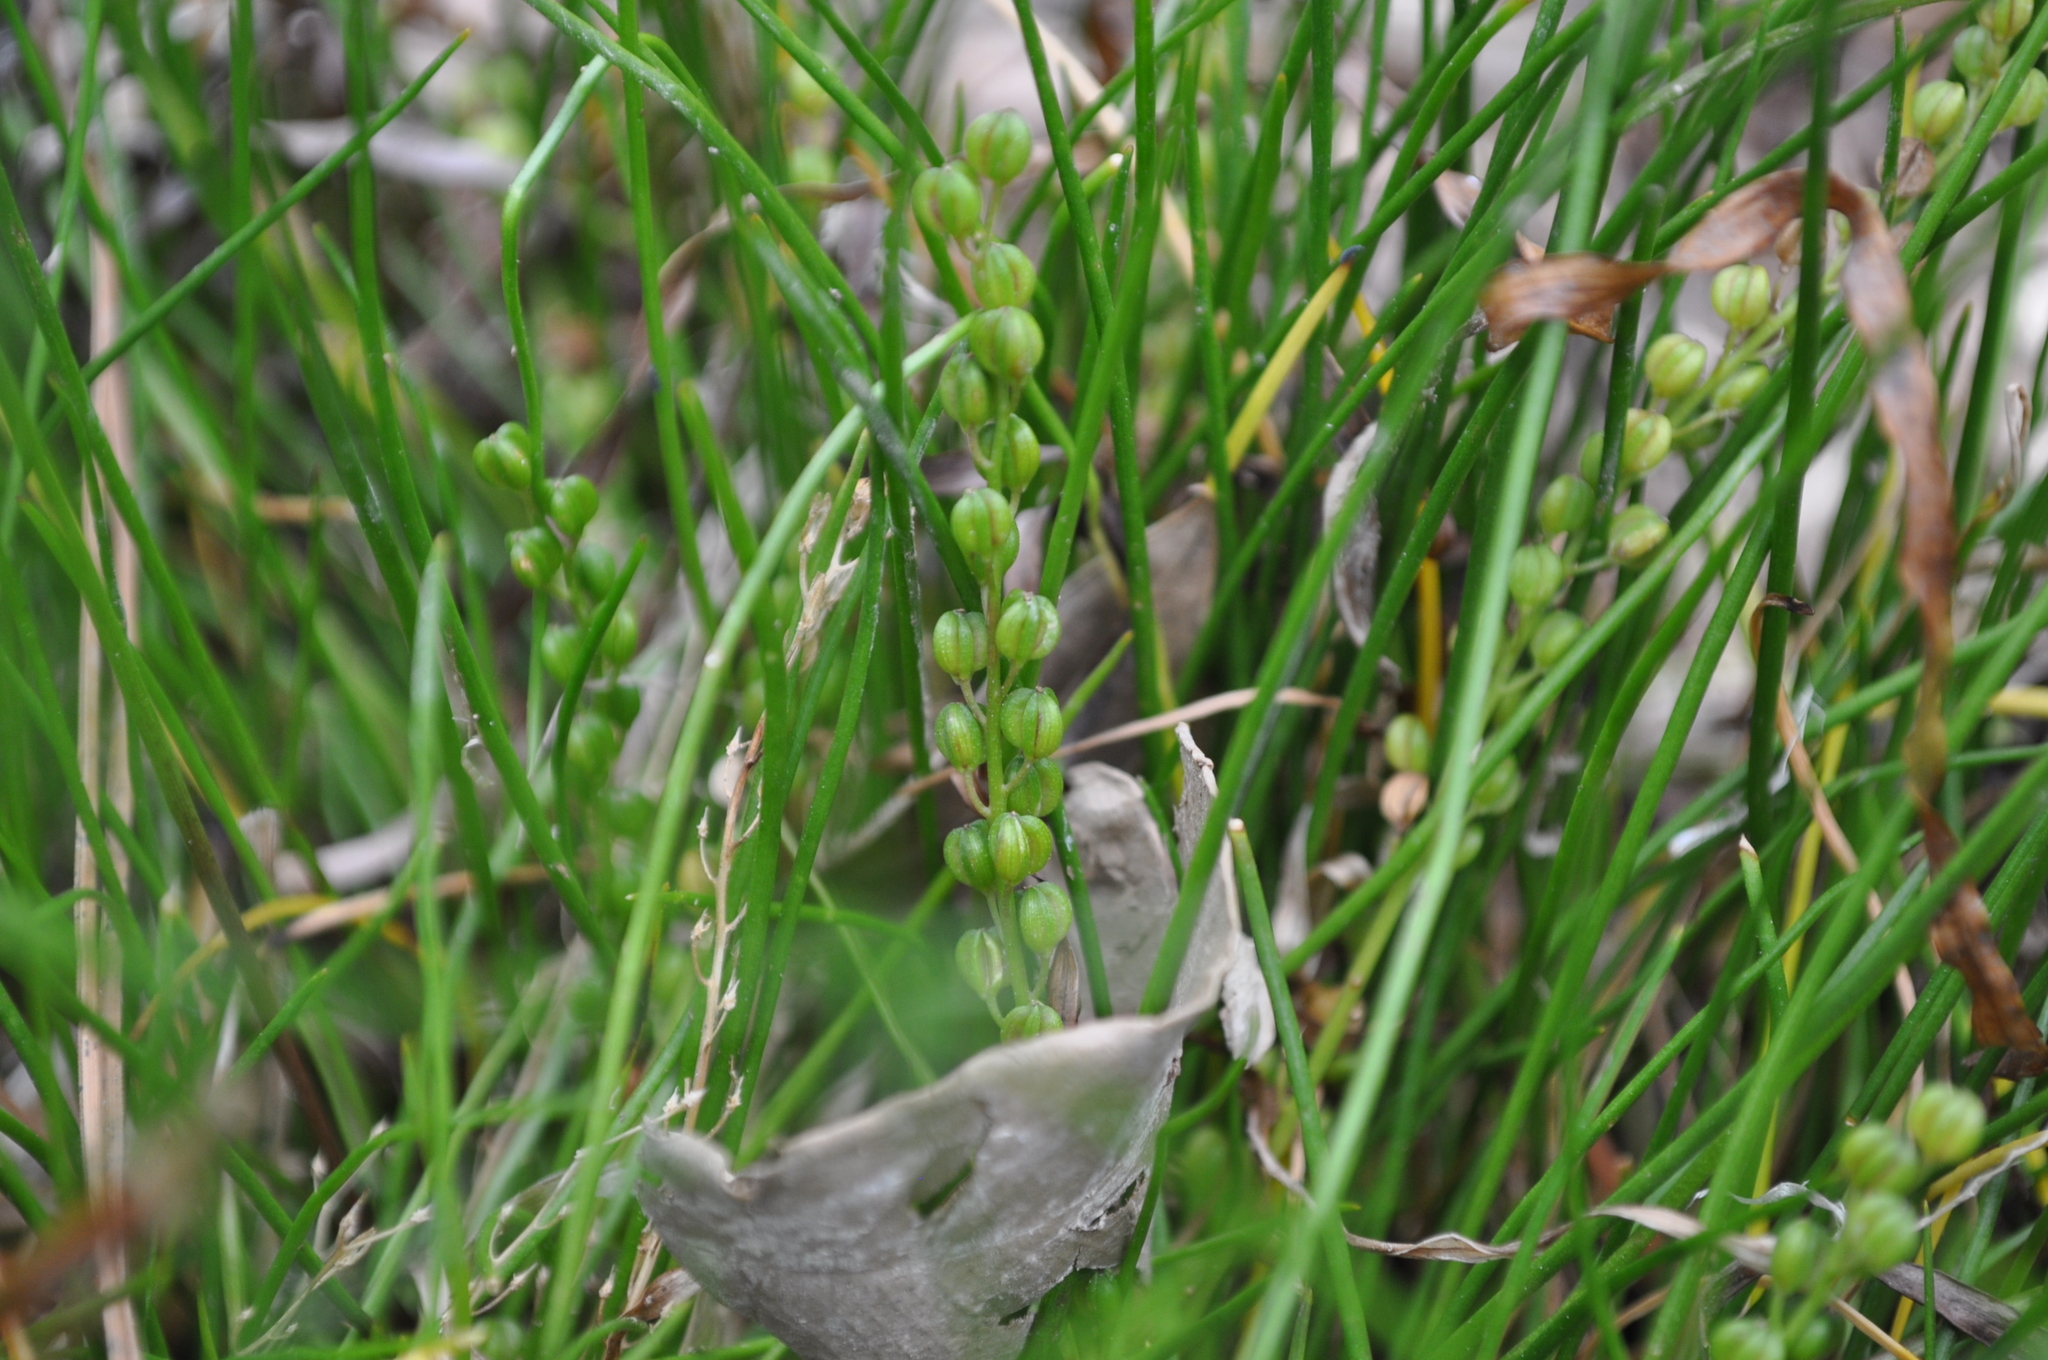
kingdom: Plantae
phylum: Tracheophyta
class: Liliopsida
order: Alismatales
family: Juncaginaceae
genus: Triglochin
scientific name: Triglochin striata
